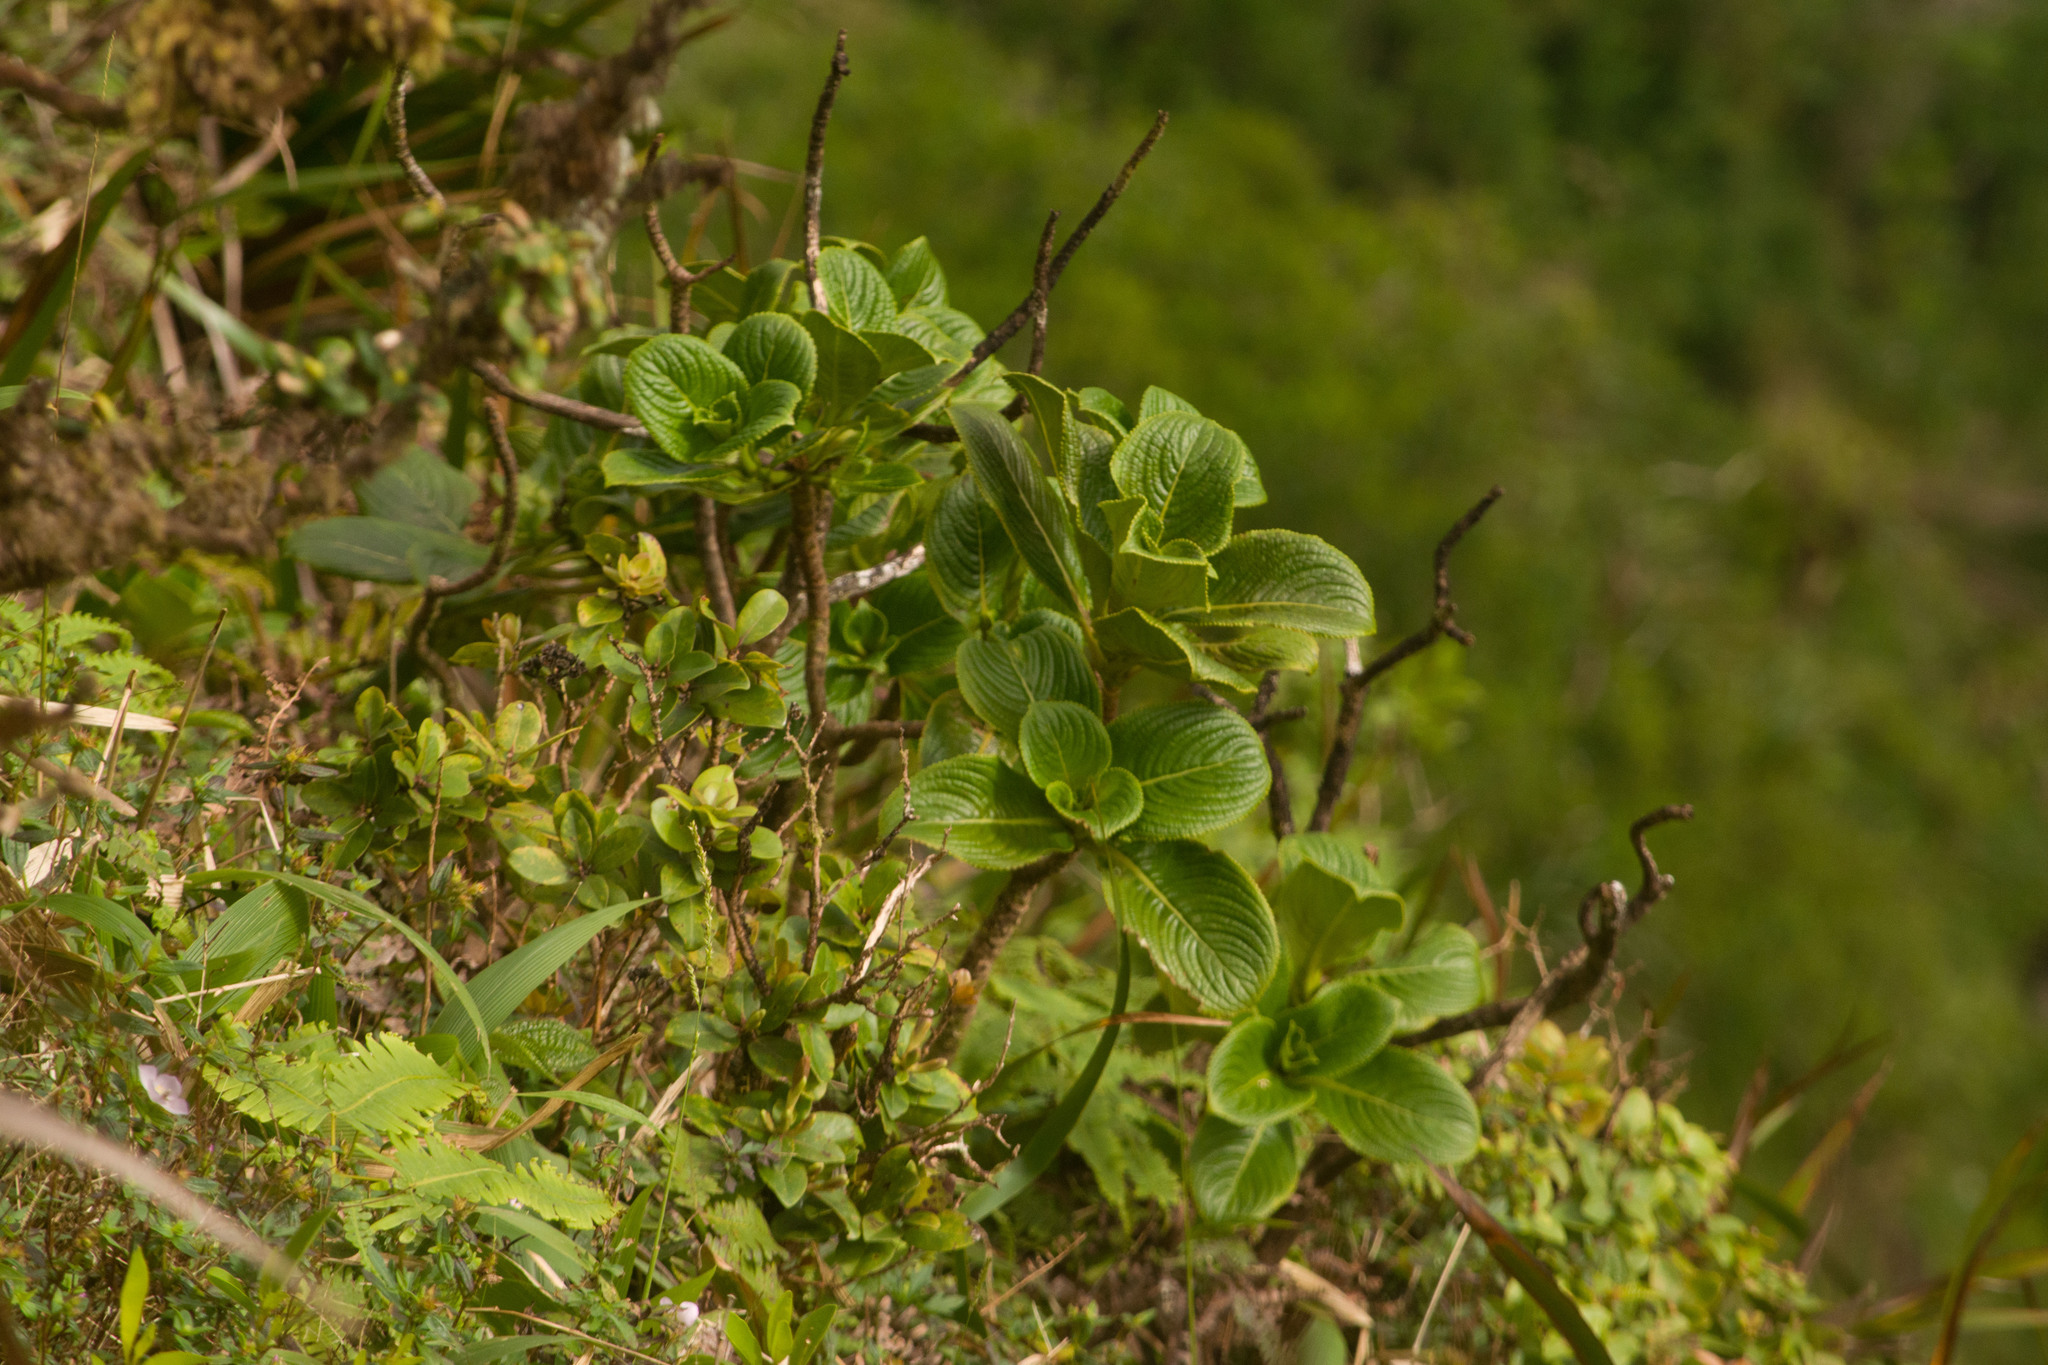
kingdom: Plantae
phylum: Tracheophyta
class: Magnoliopsida
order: Cornales
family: Hydrangeaceae
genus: Hydrangea
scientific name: Hydrangea arguta
